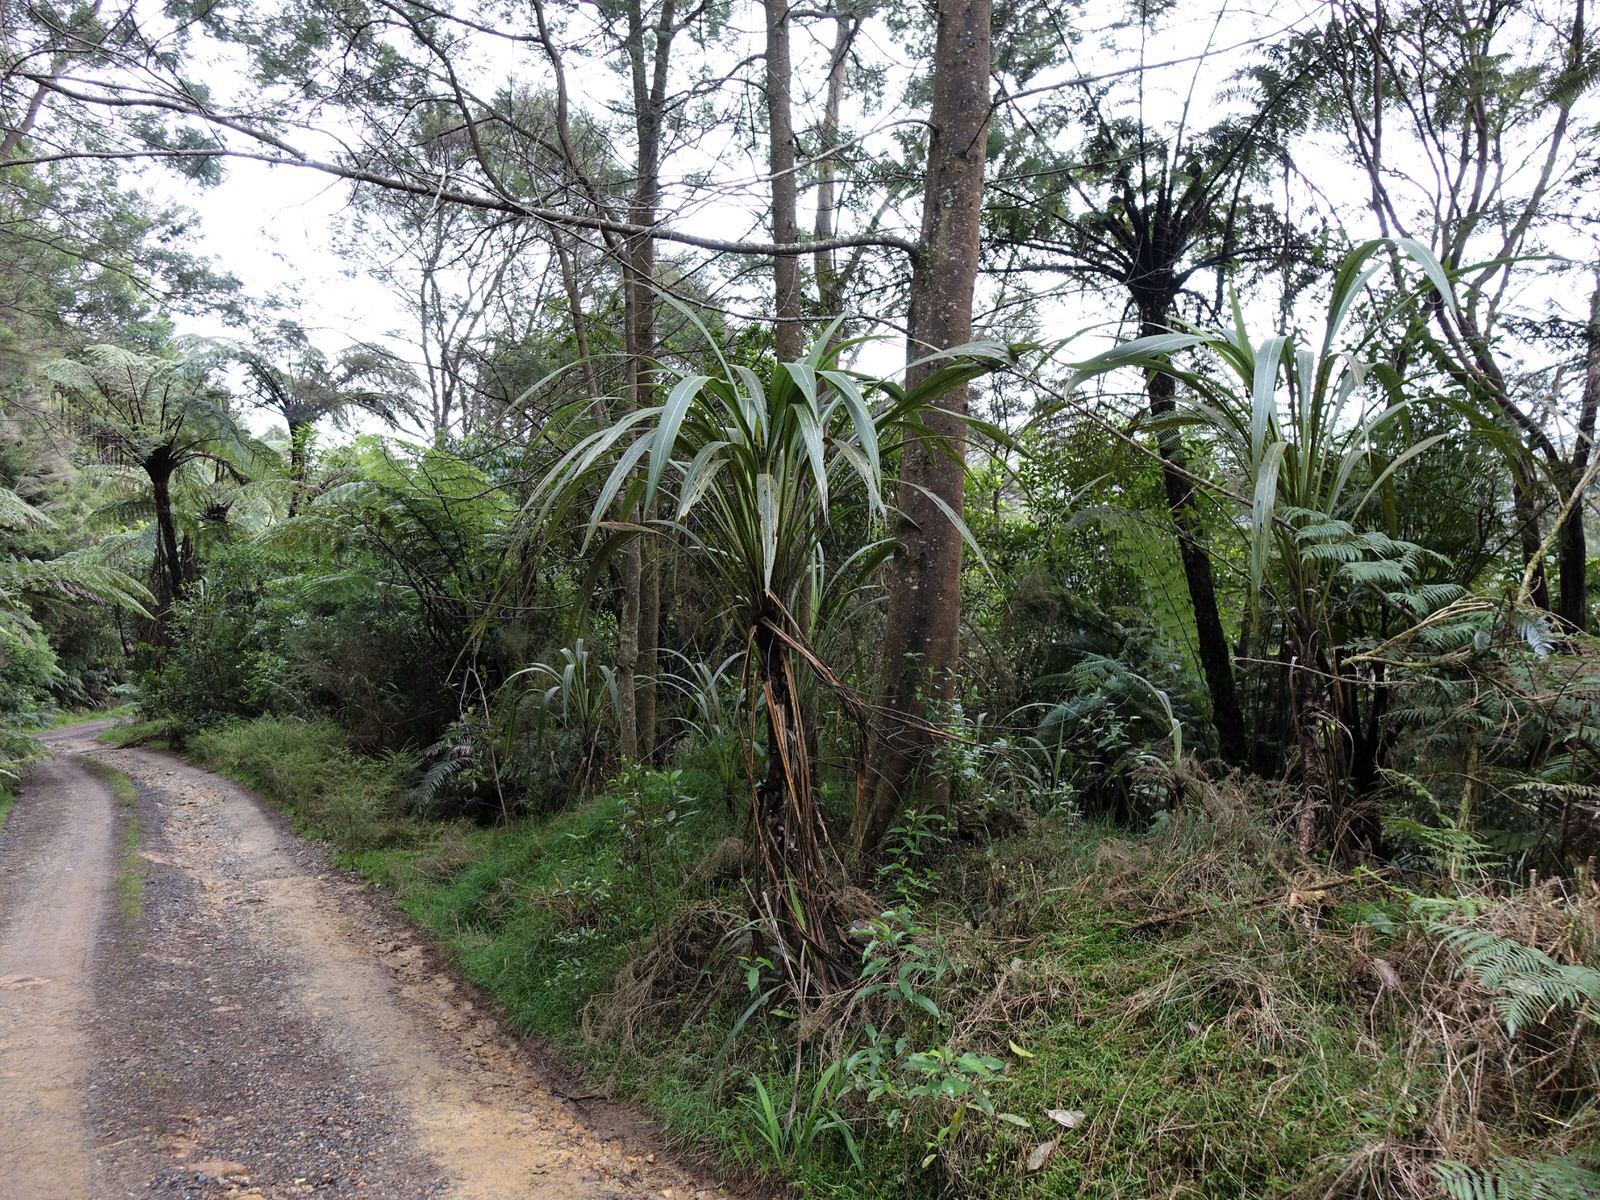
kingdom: Plantae
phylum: Tracheophyta
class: Liliopsida
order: Asparagales
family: Asparagaceae
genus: Cordyline
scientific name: Cordyline banksii
